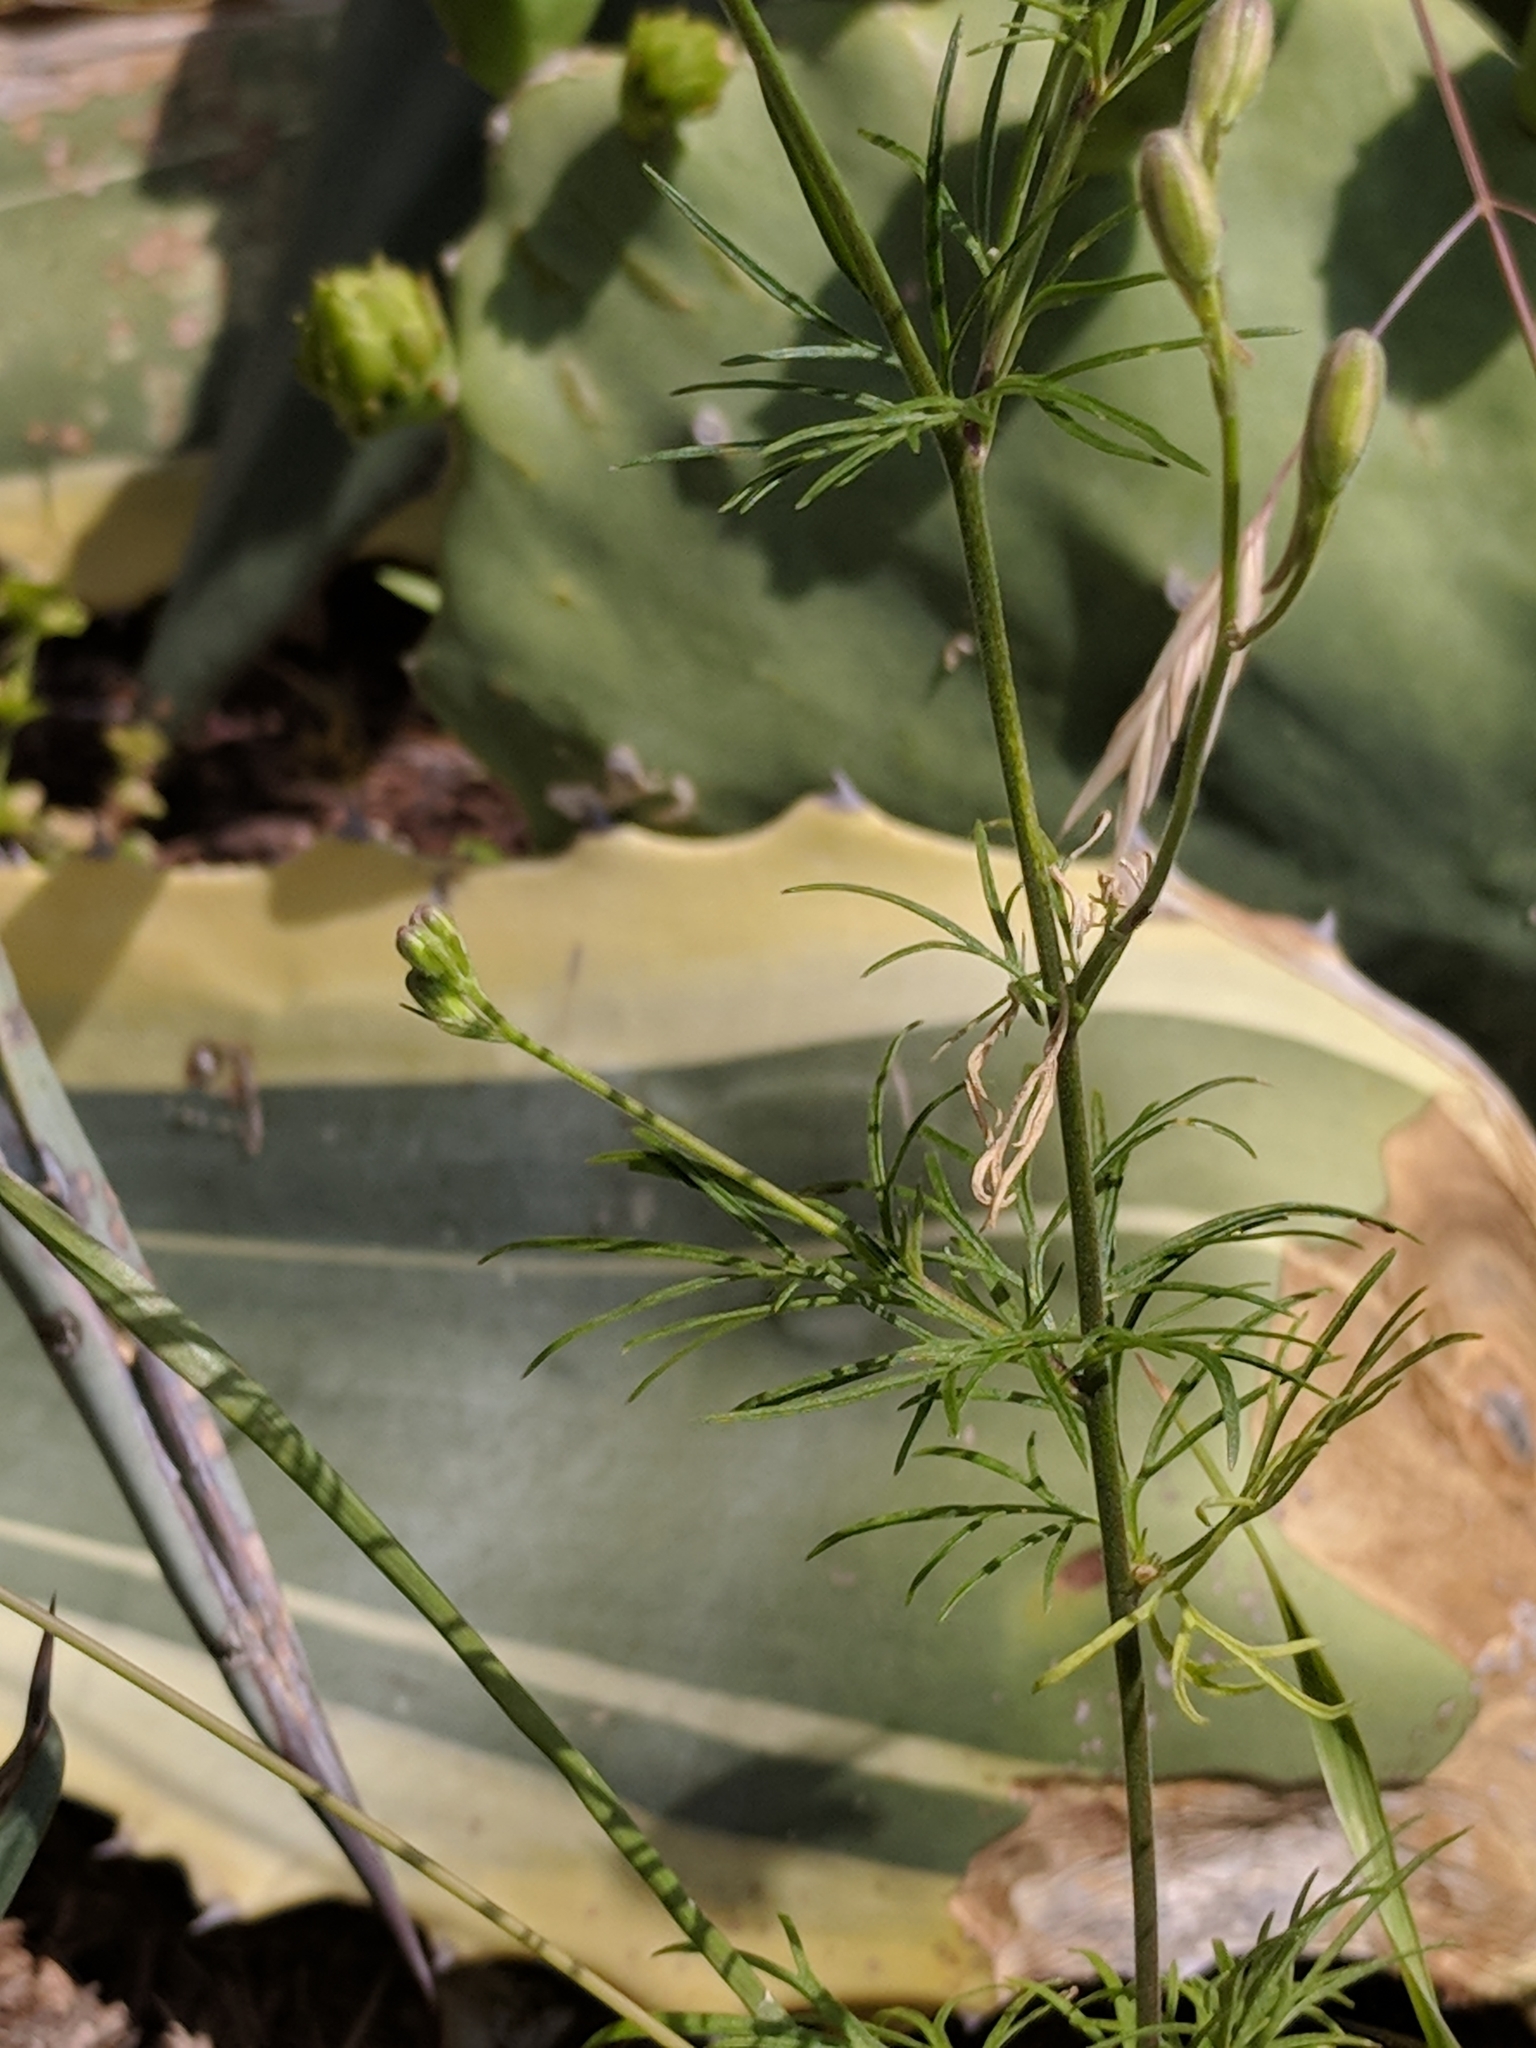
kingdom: Plantae
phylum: Tracheophyta
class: Magnoliopsida
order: Ranunculales
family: Ranunculaceae
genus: Delphinium
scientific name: Delphinium ajacis
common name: Doubtful knight's-spur
